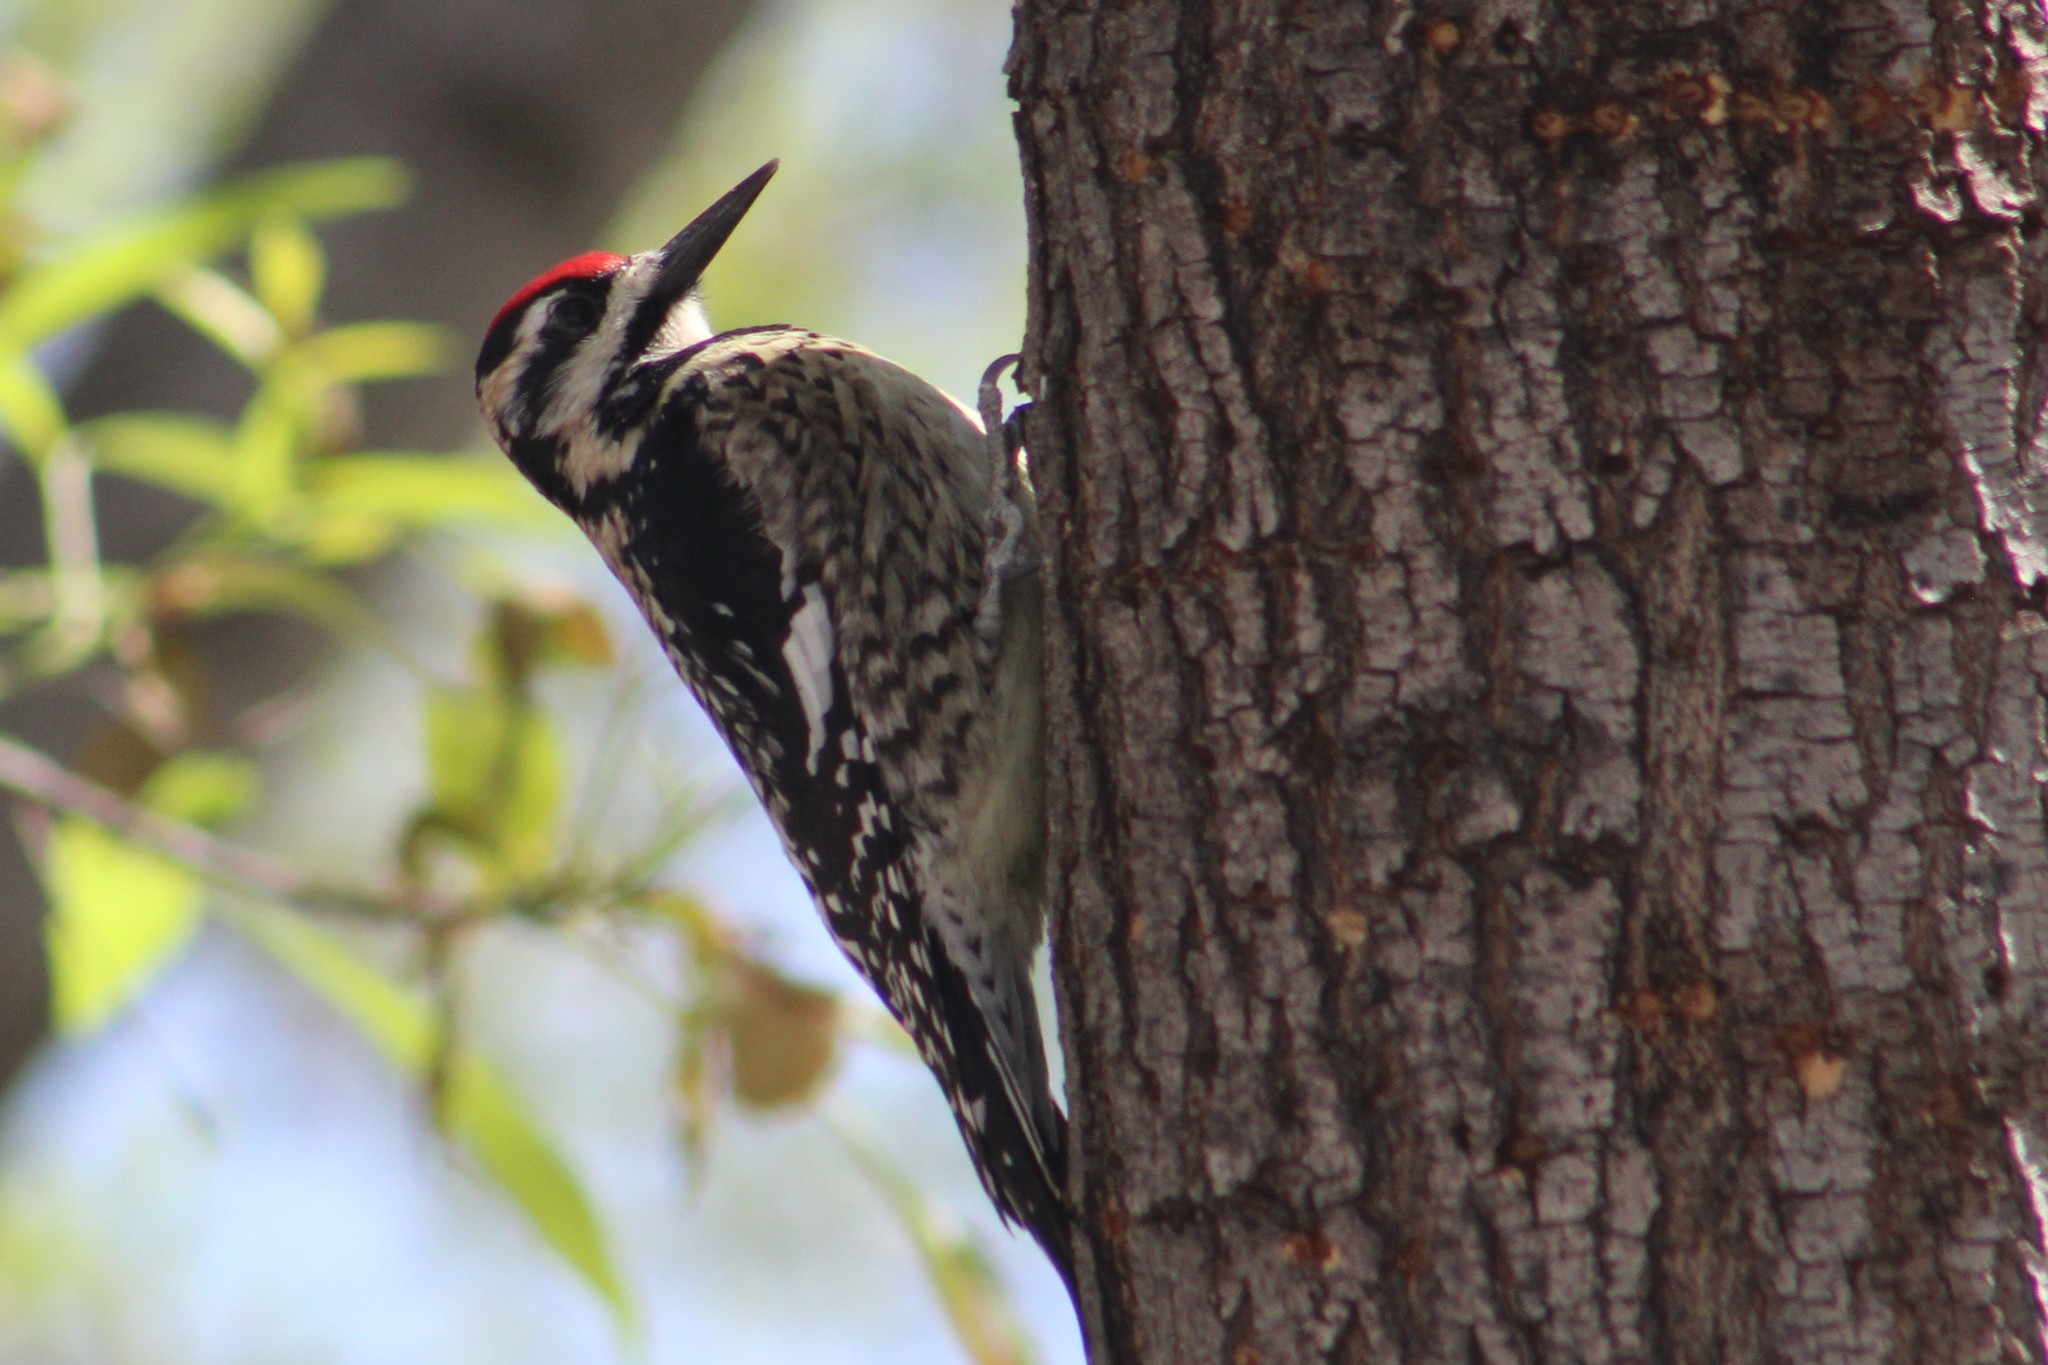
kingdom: Animalia
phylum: Chordata
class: Aves
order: Piciformes
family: Picidae
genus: Sphyrapicus
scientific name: Sphyrapicus varius
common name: Yellow-bellied sapsucker
